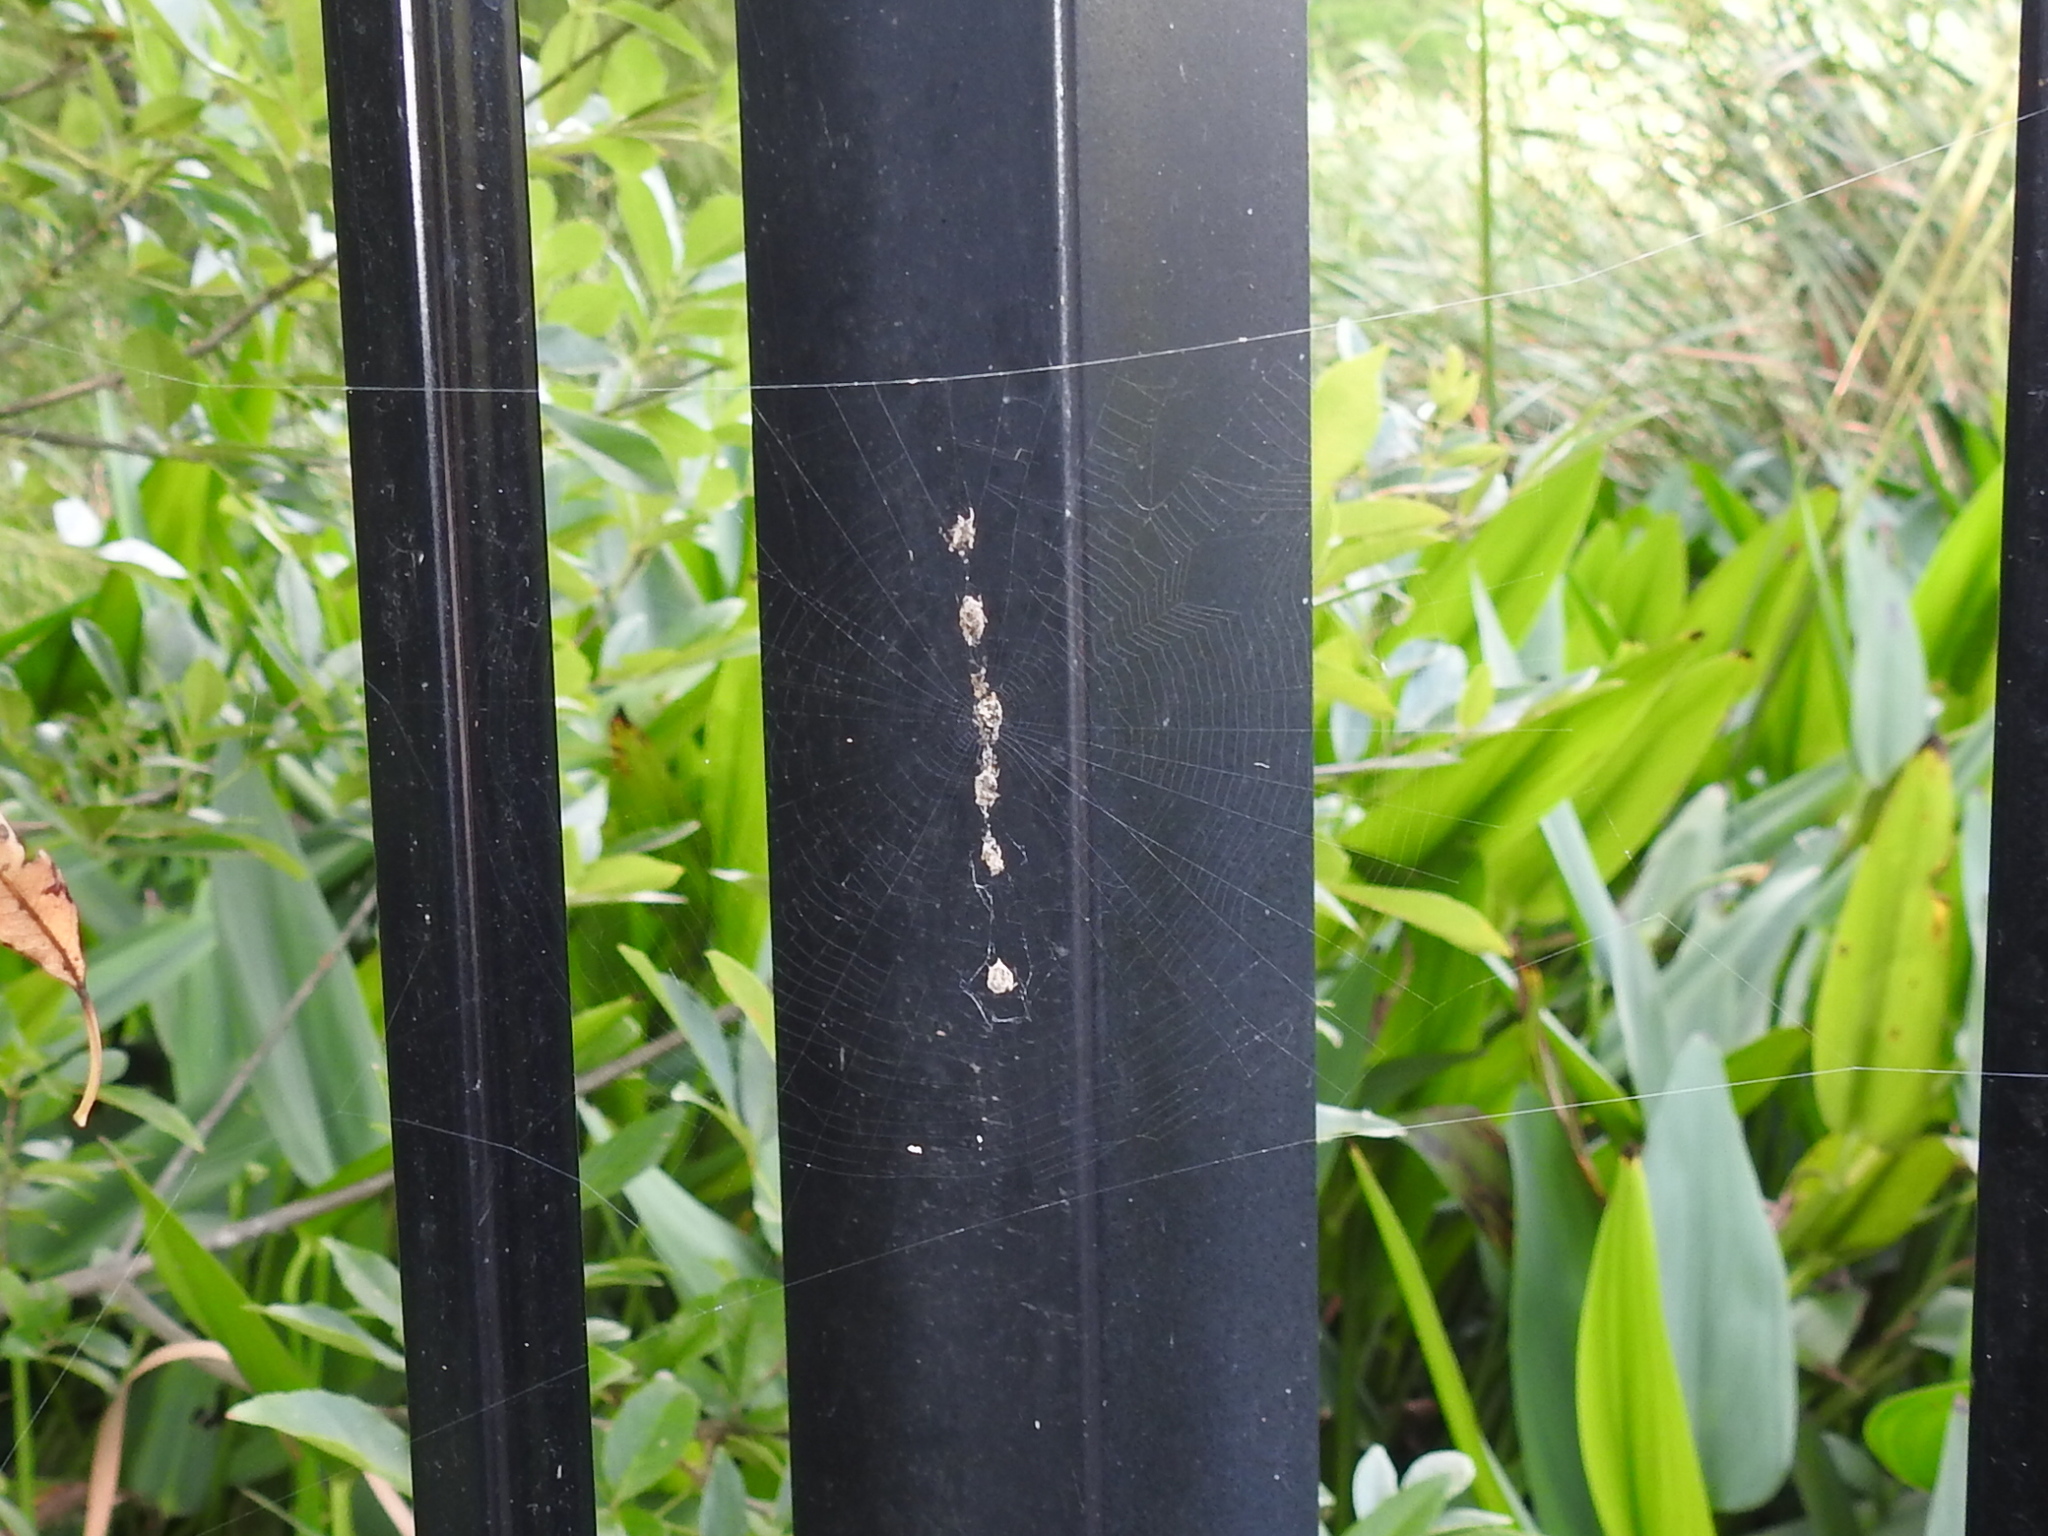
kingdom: Animalia
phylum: Arthropoda
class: Arachnida
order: Araneae
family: Araneidae
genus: Cyclosa
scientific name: Cyclosa turbinata
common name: Orb weavers
